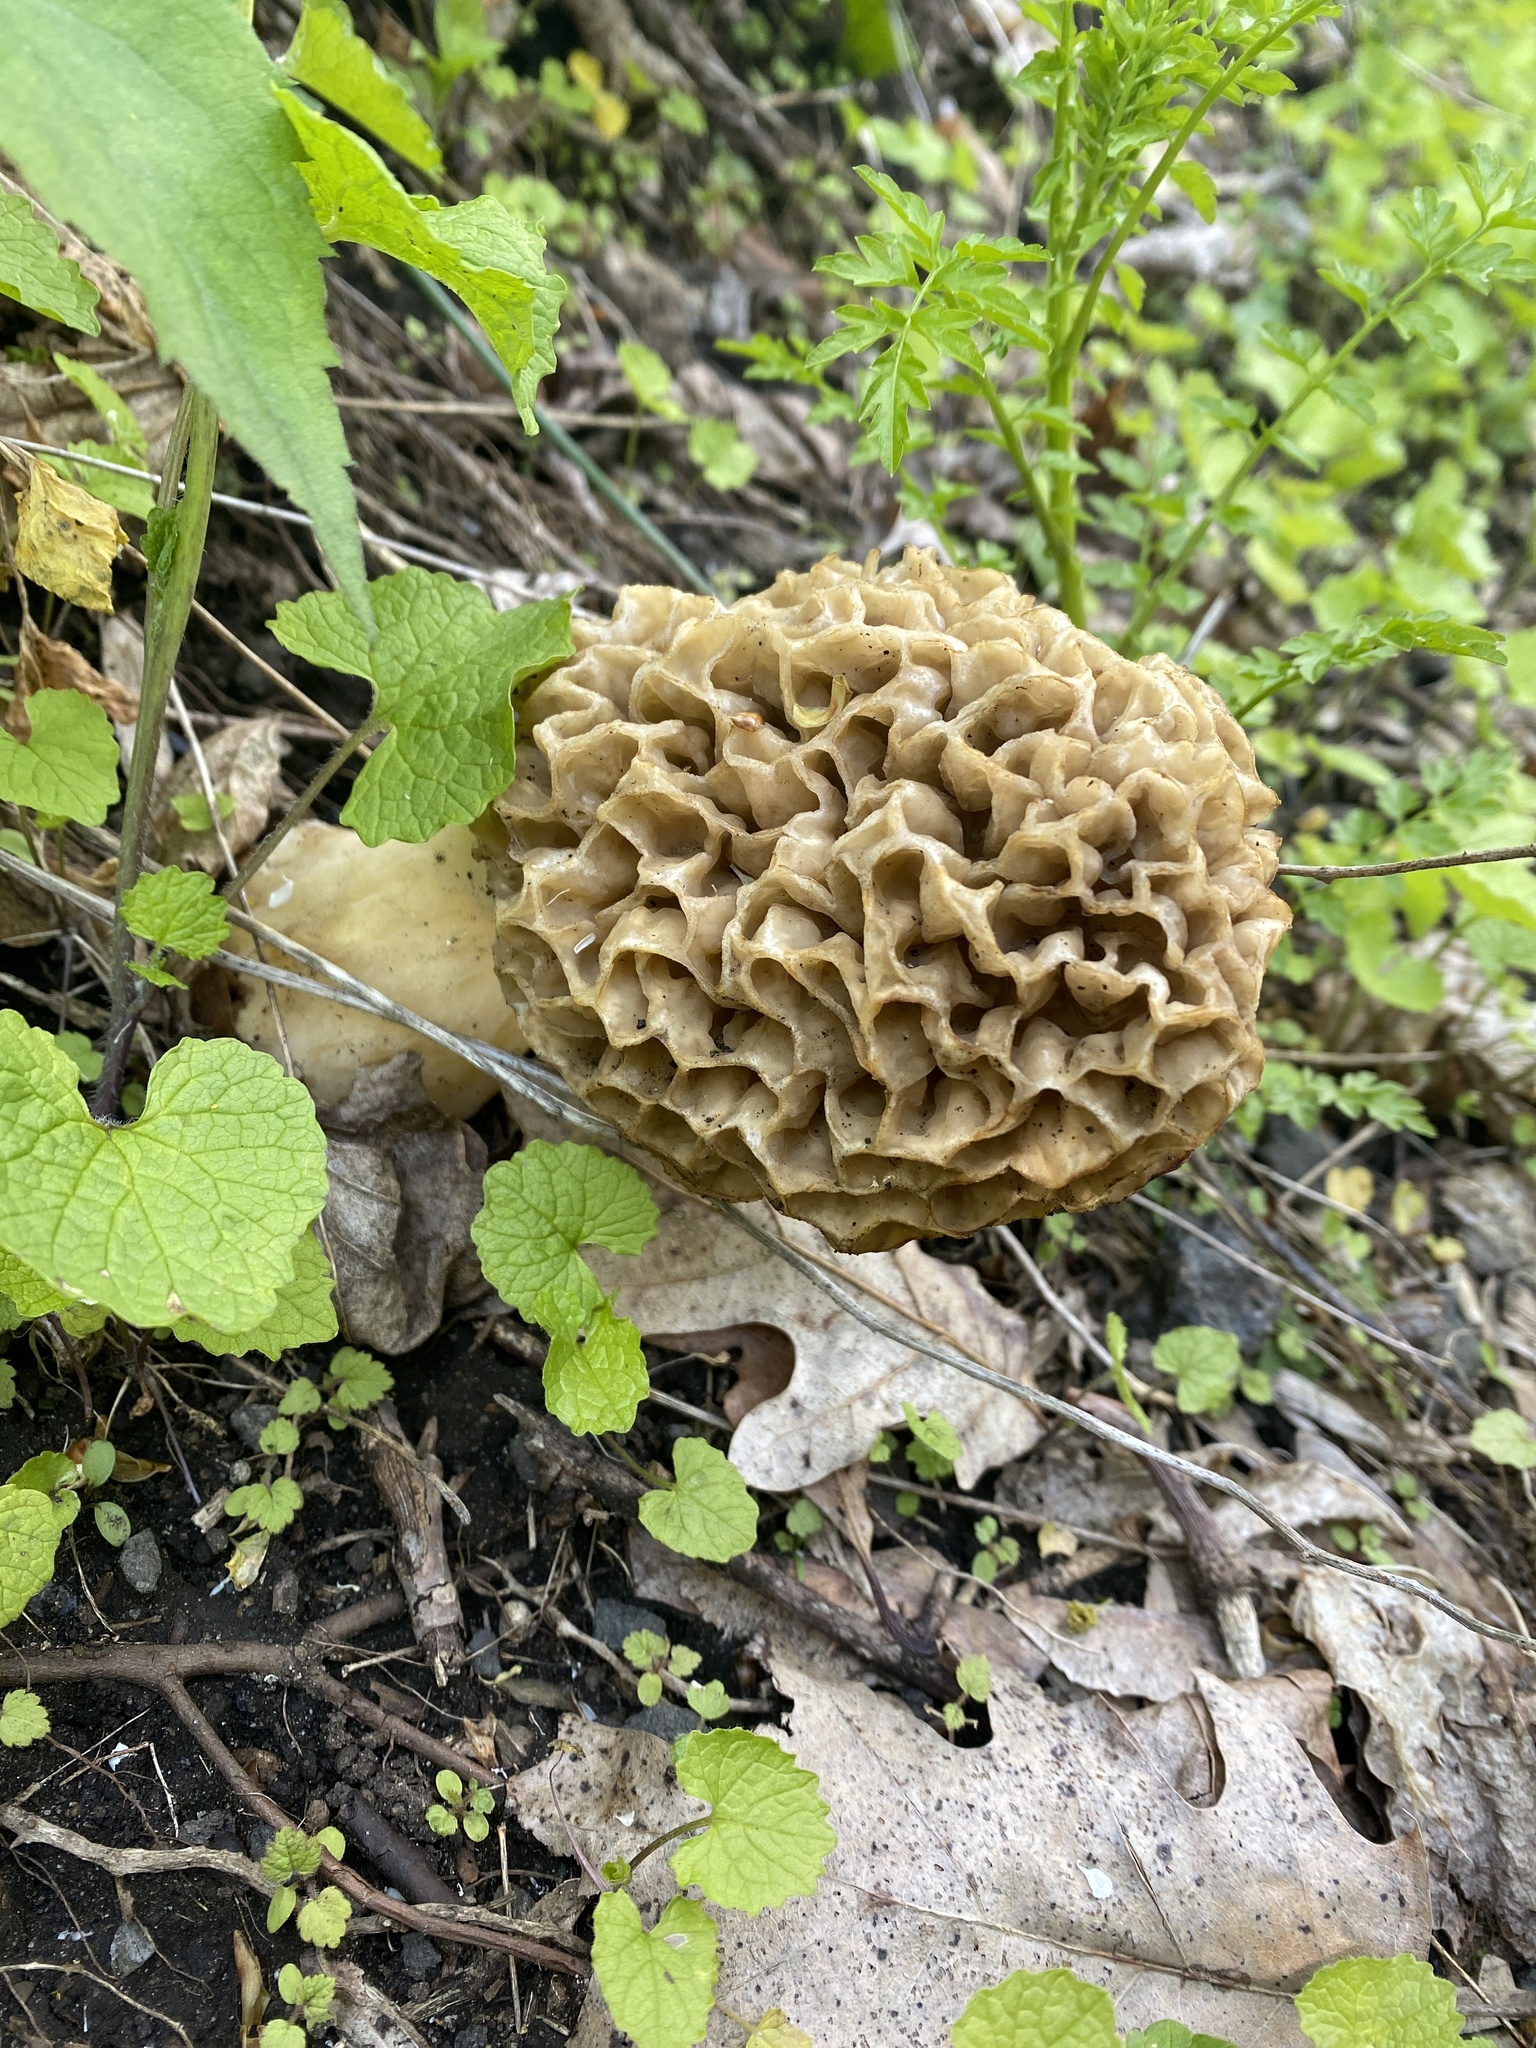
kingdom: Fungi
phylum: Ascomycota
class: Pezizomycetes
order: Pezizales
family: Morchellaceae
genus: Morchella
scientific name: Morchella americana
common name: White morel
